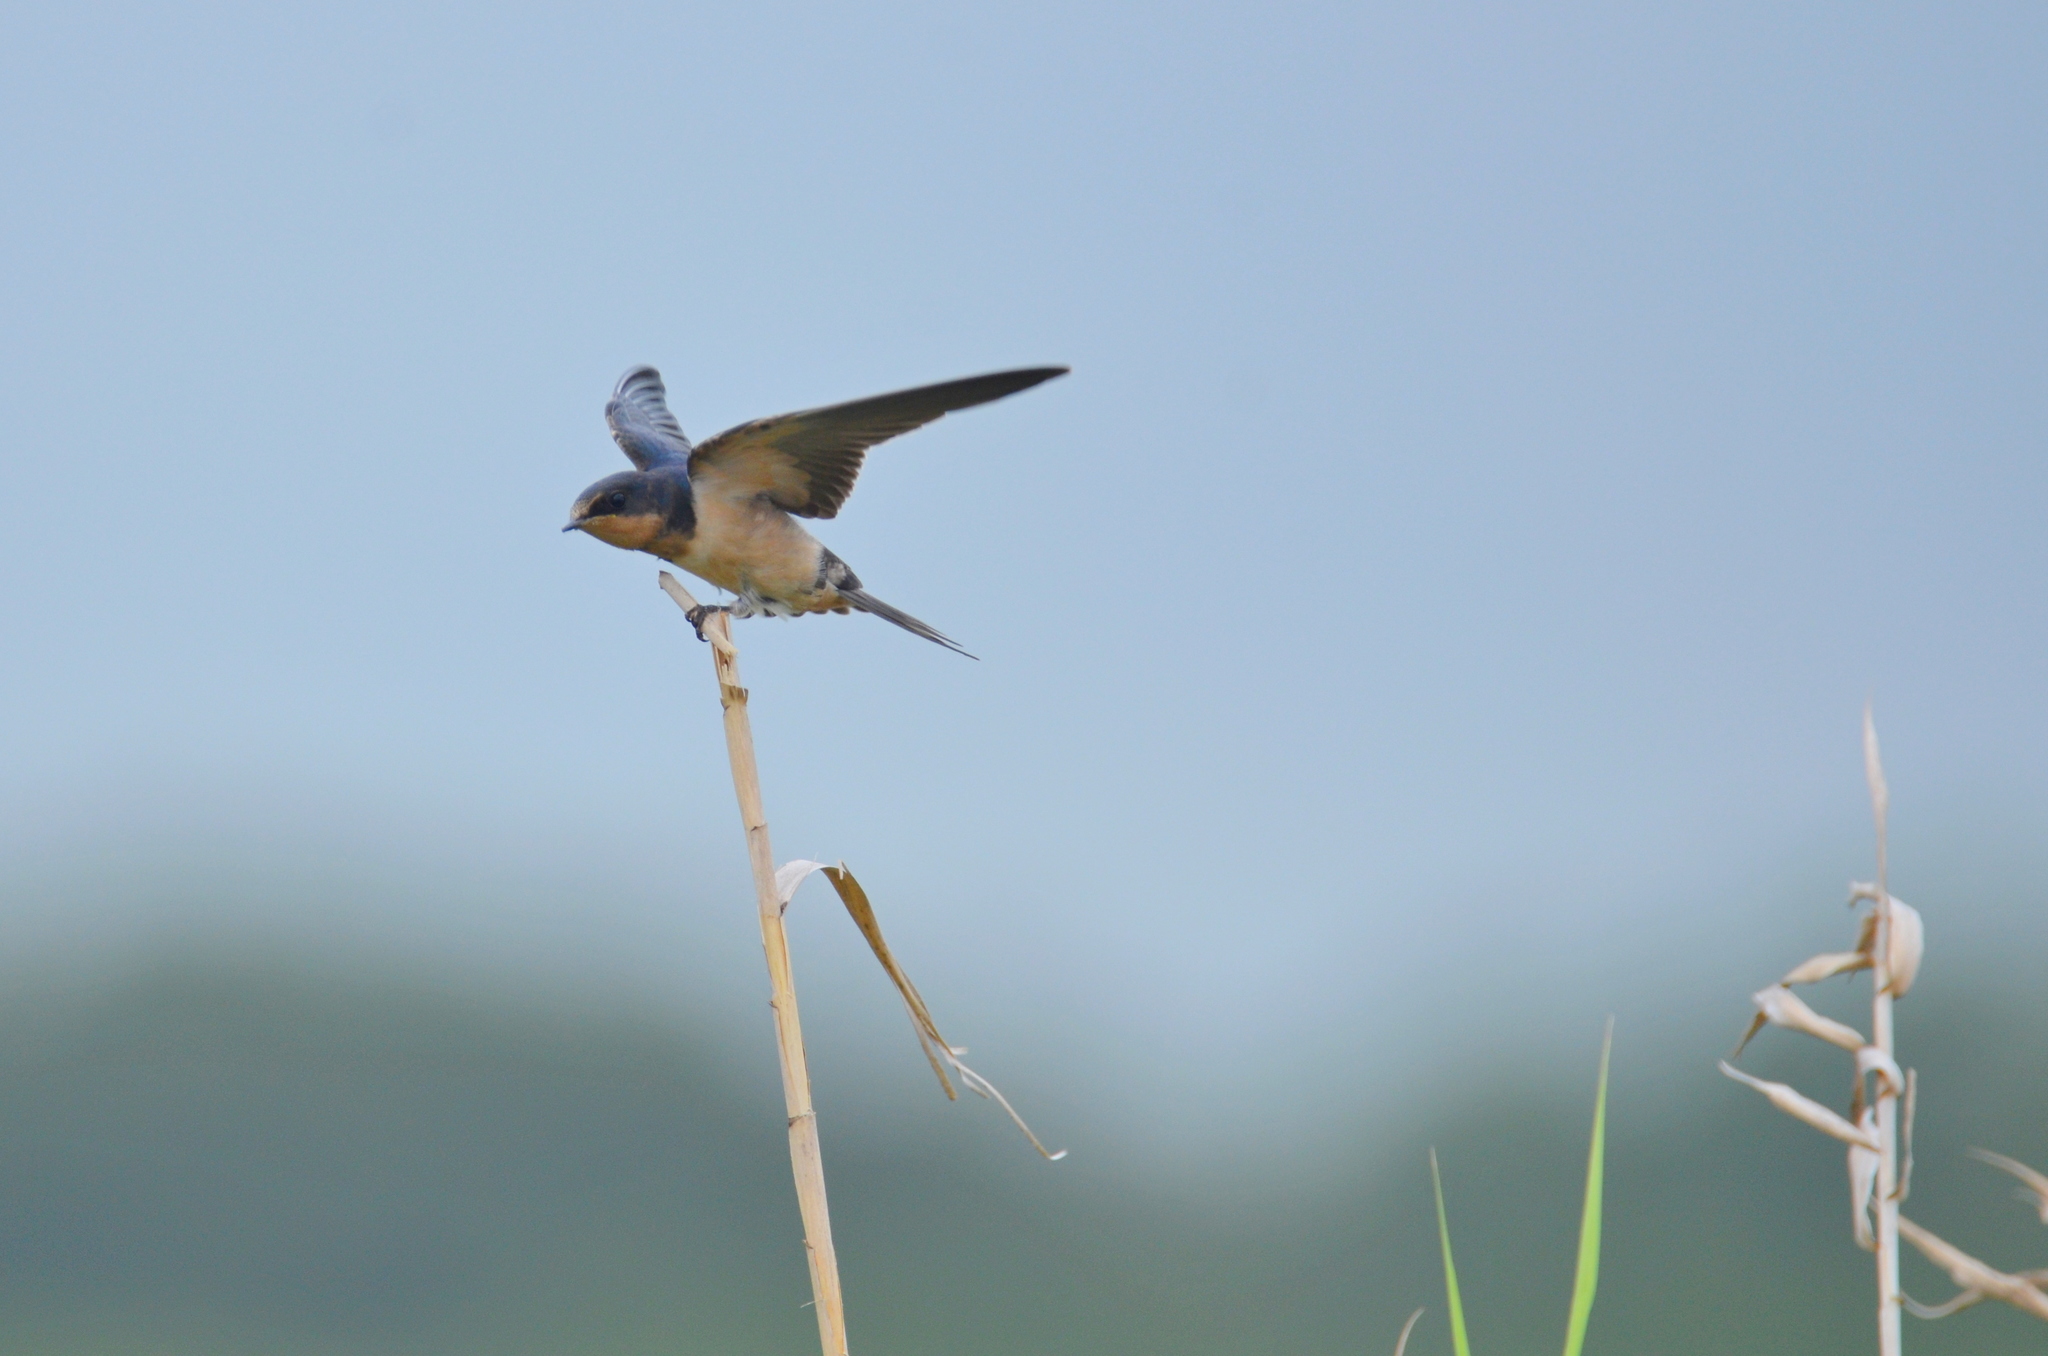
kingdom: Animalia
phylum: Chordata
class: Aves
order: Passeriformes
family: Hirundinidae
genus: Hirundo
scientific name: Hirundo rustica
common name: Barn swallow
